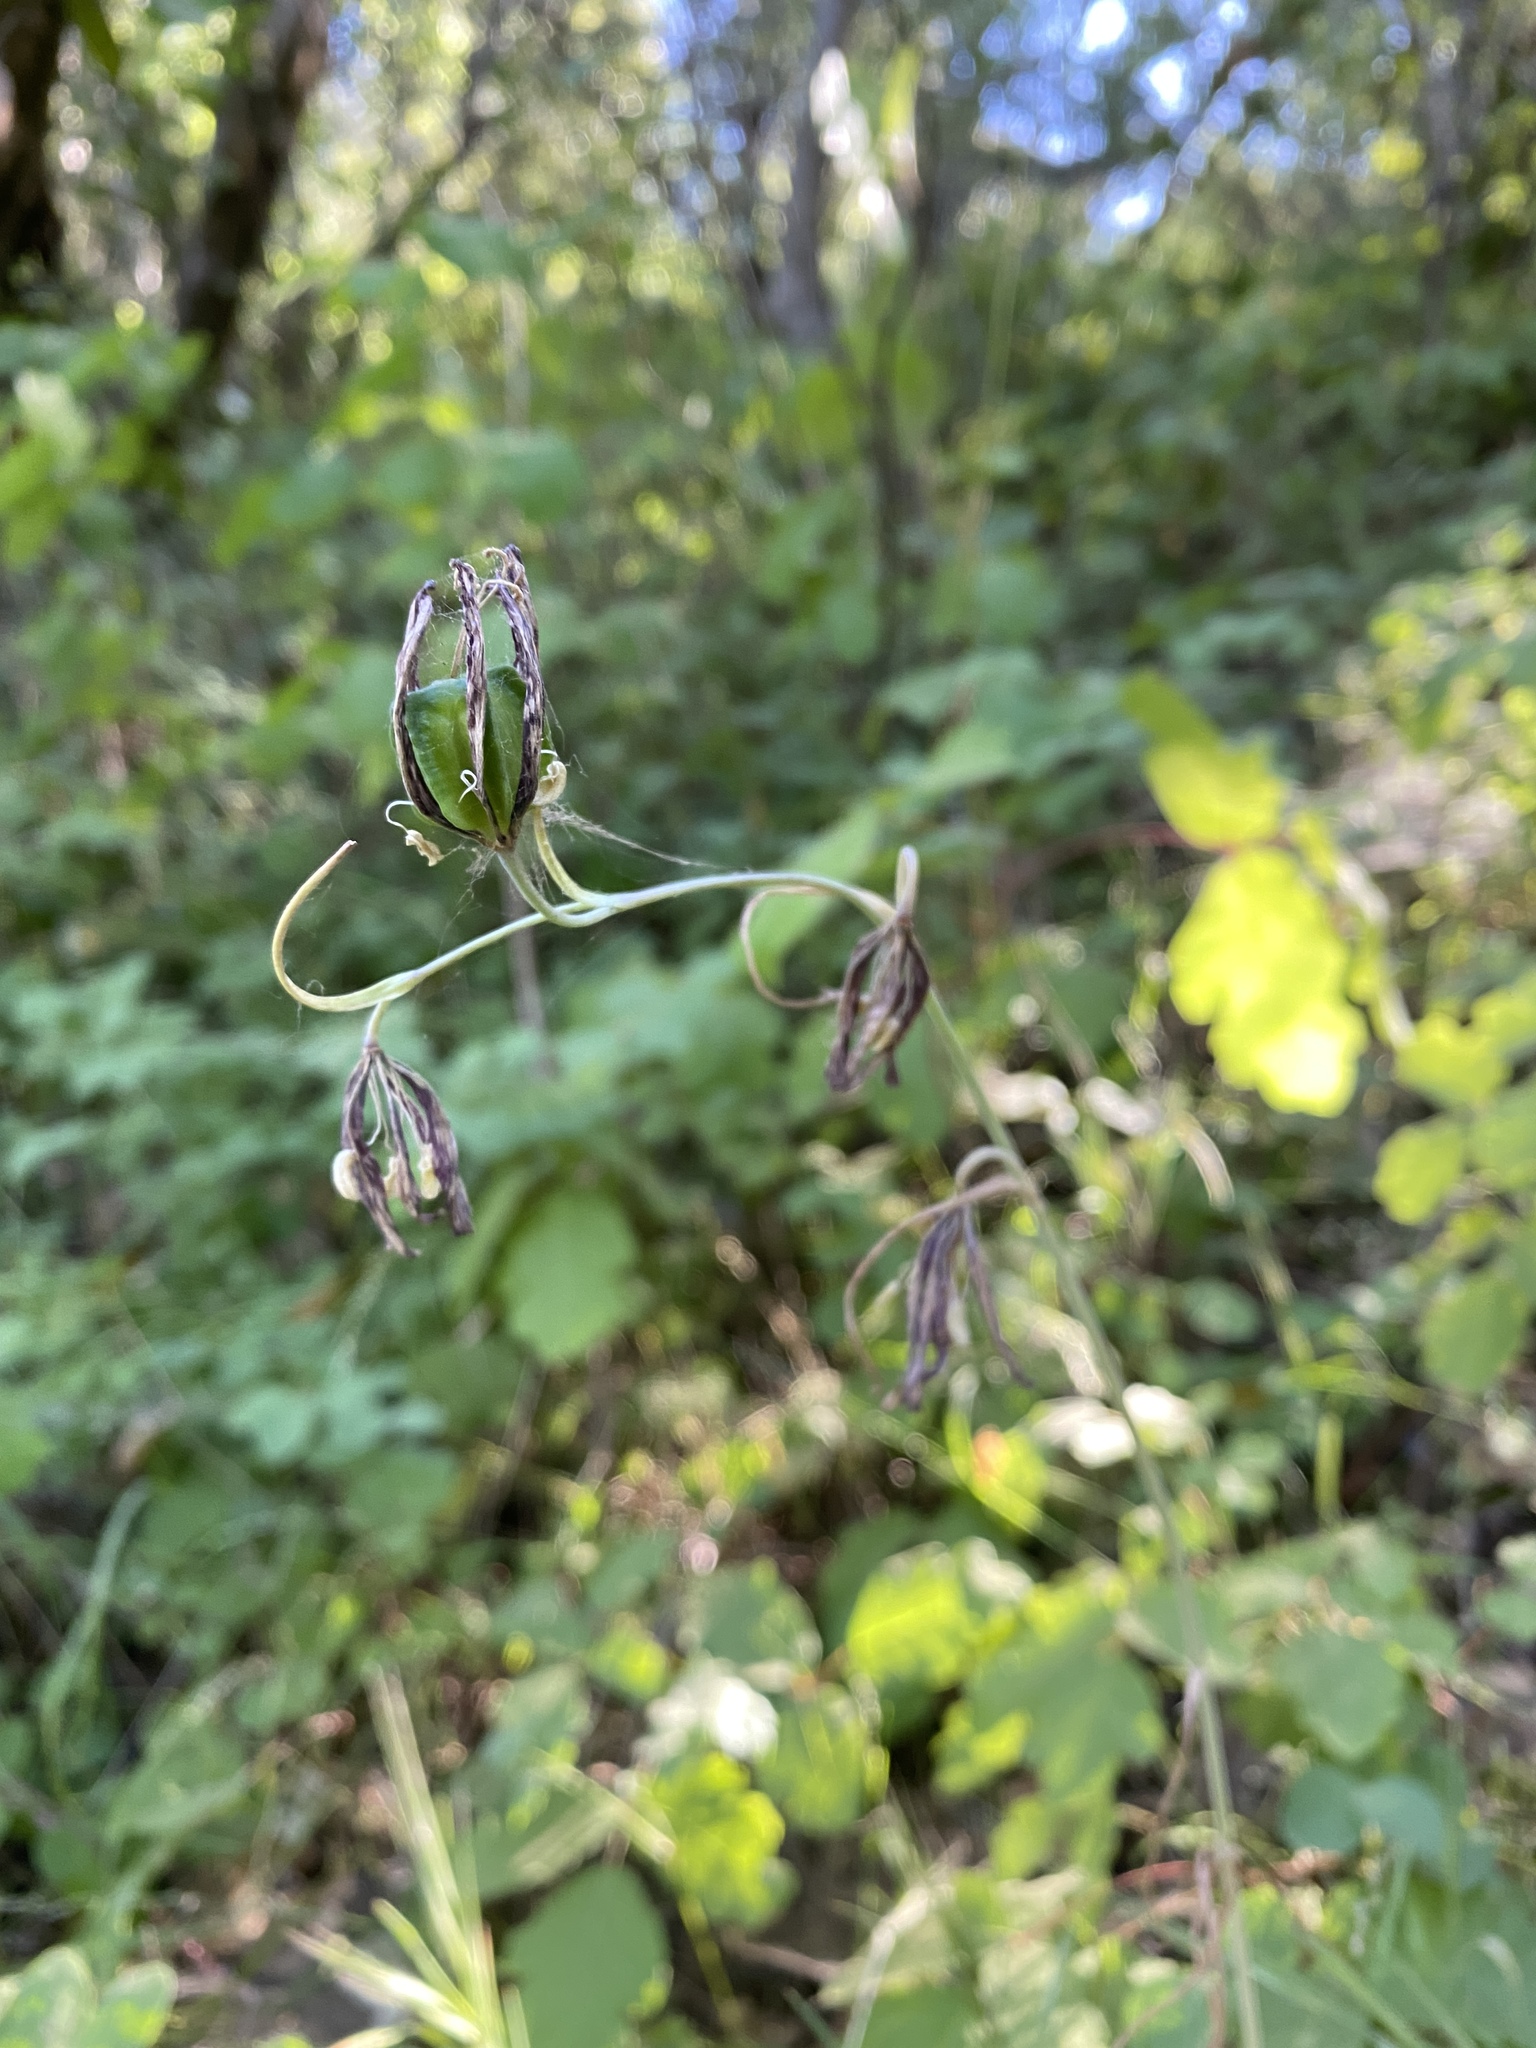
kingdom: Plantae
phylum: Tracheophyta
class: Liliopsida
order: Liliales
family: Liliaceae
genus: Fritillaria
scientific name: Fritillaria affinis
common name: Ojai fritillary
